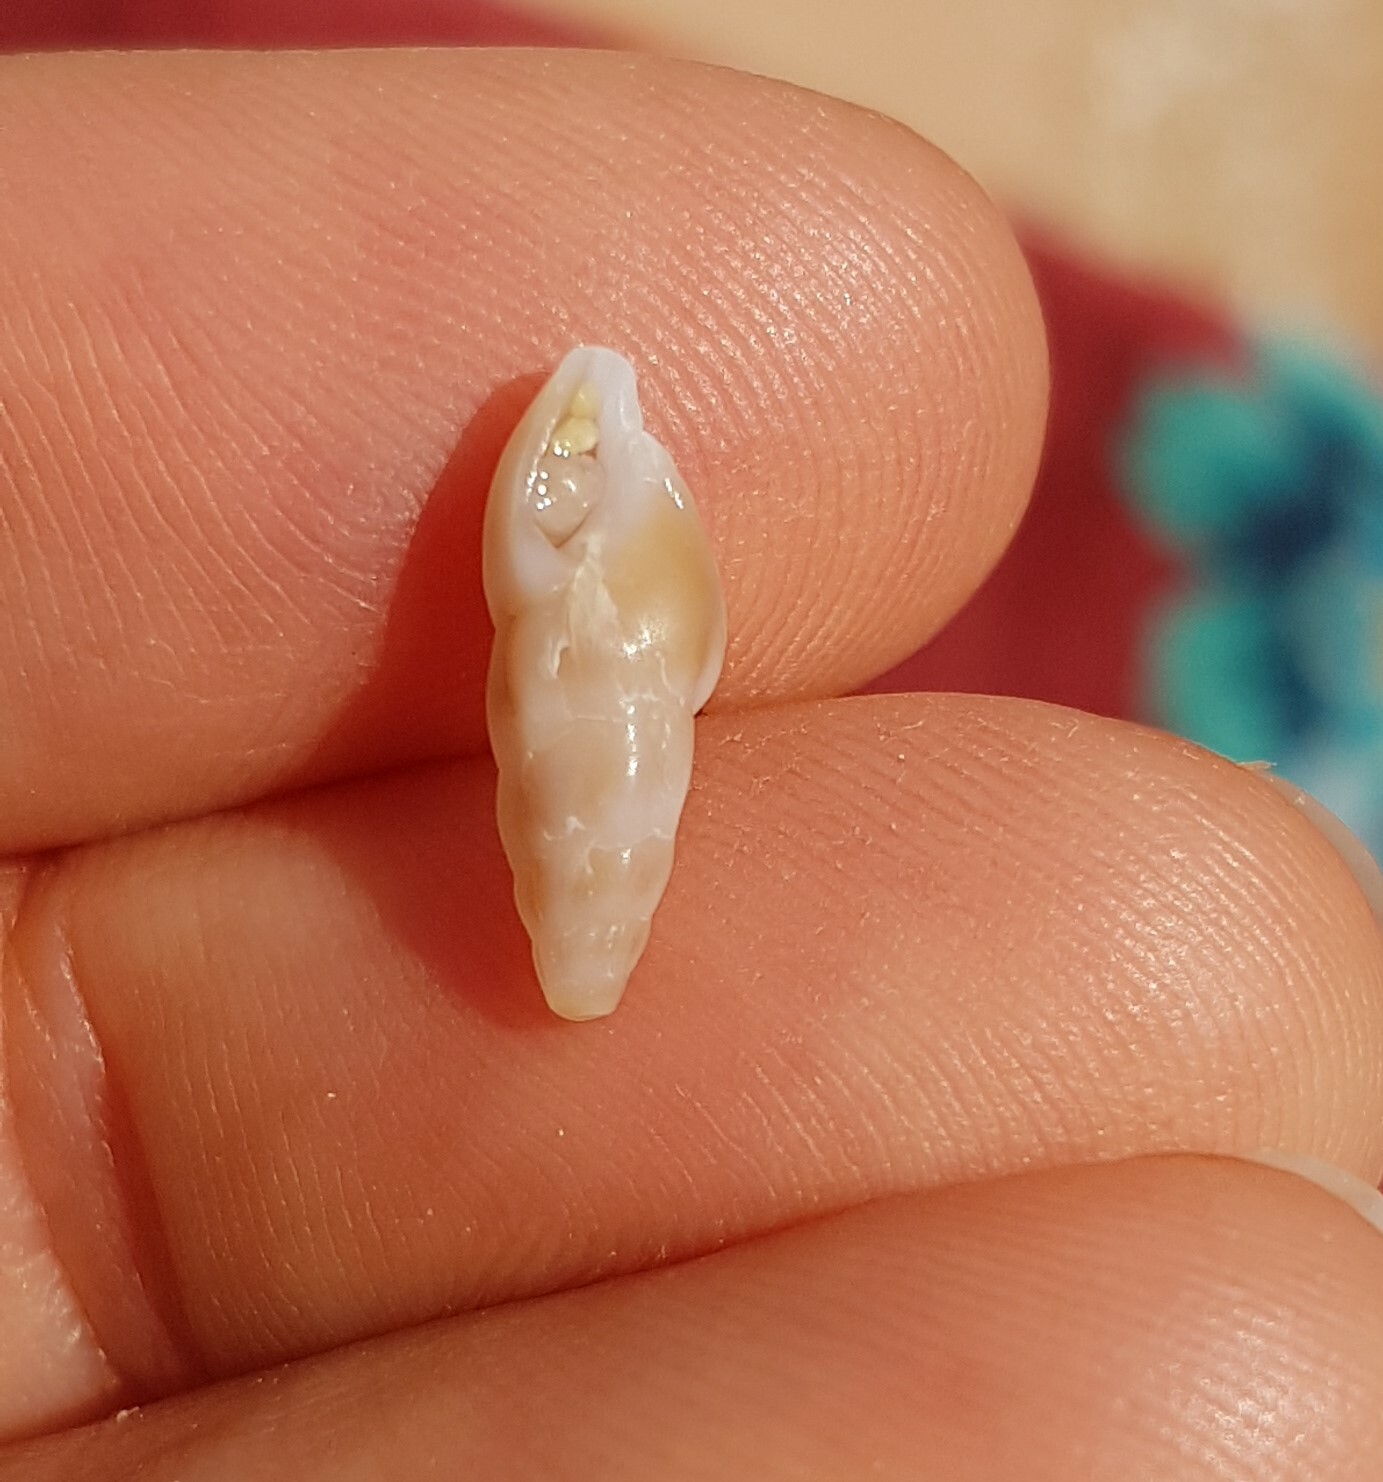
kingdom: Animalia
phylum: Mollusca
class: Gastropoda
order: Neogastropoda
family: Horaiclavidae
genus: Haedropleura
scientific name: Haedropleura septangularis
